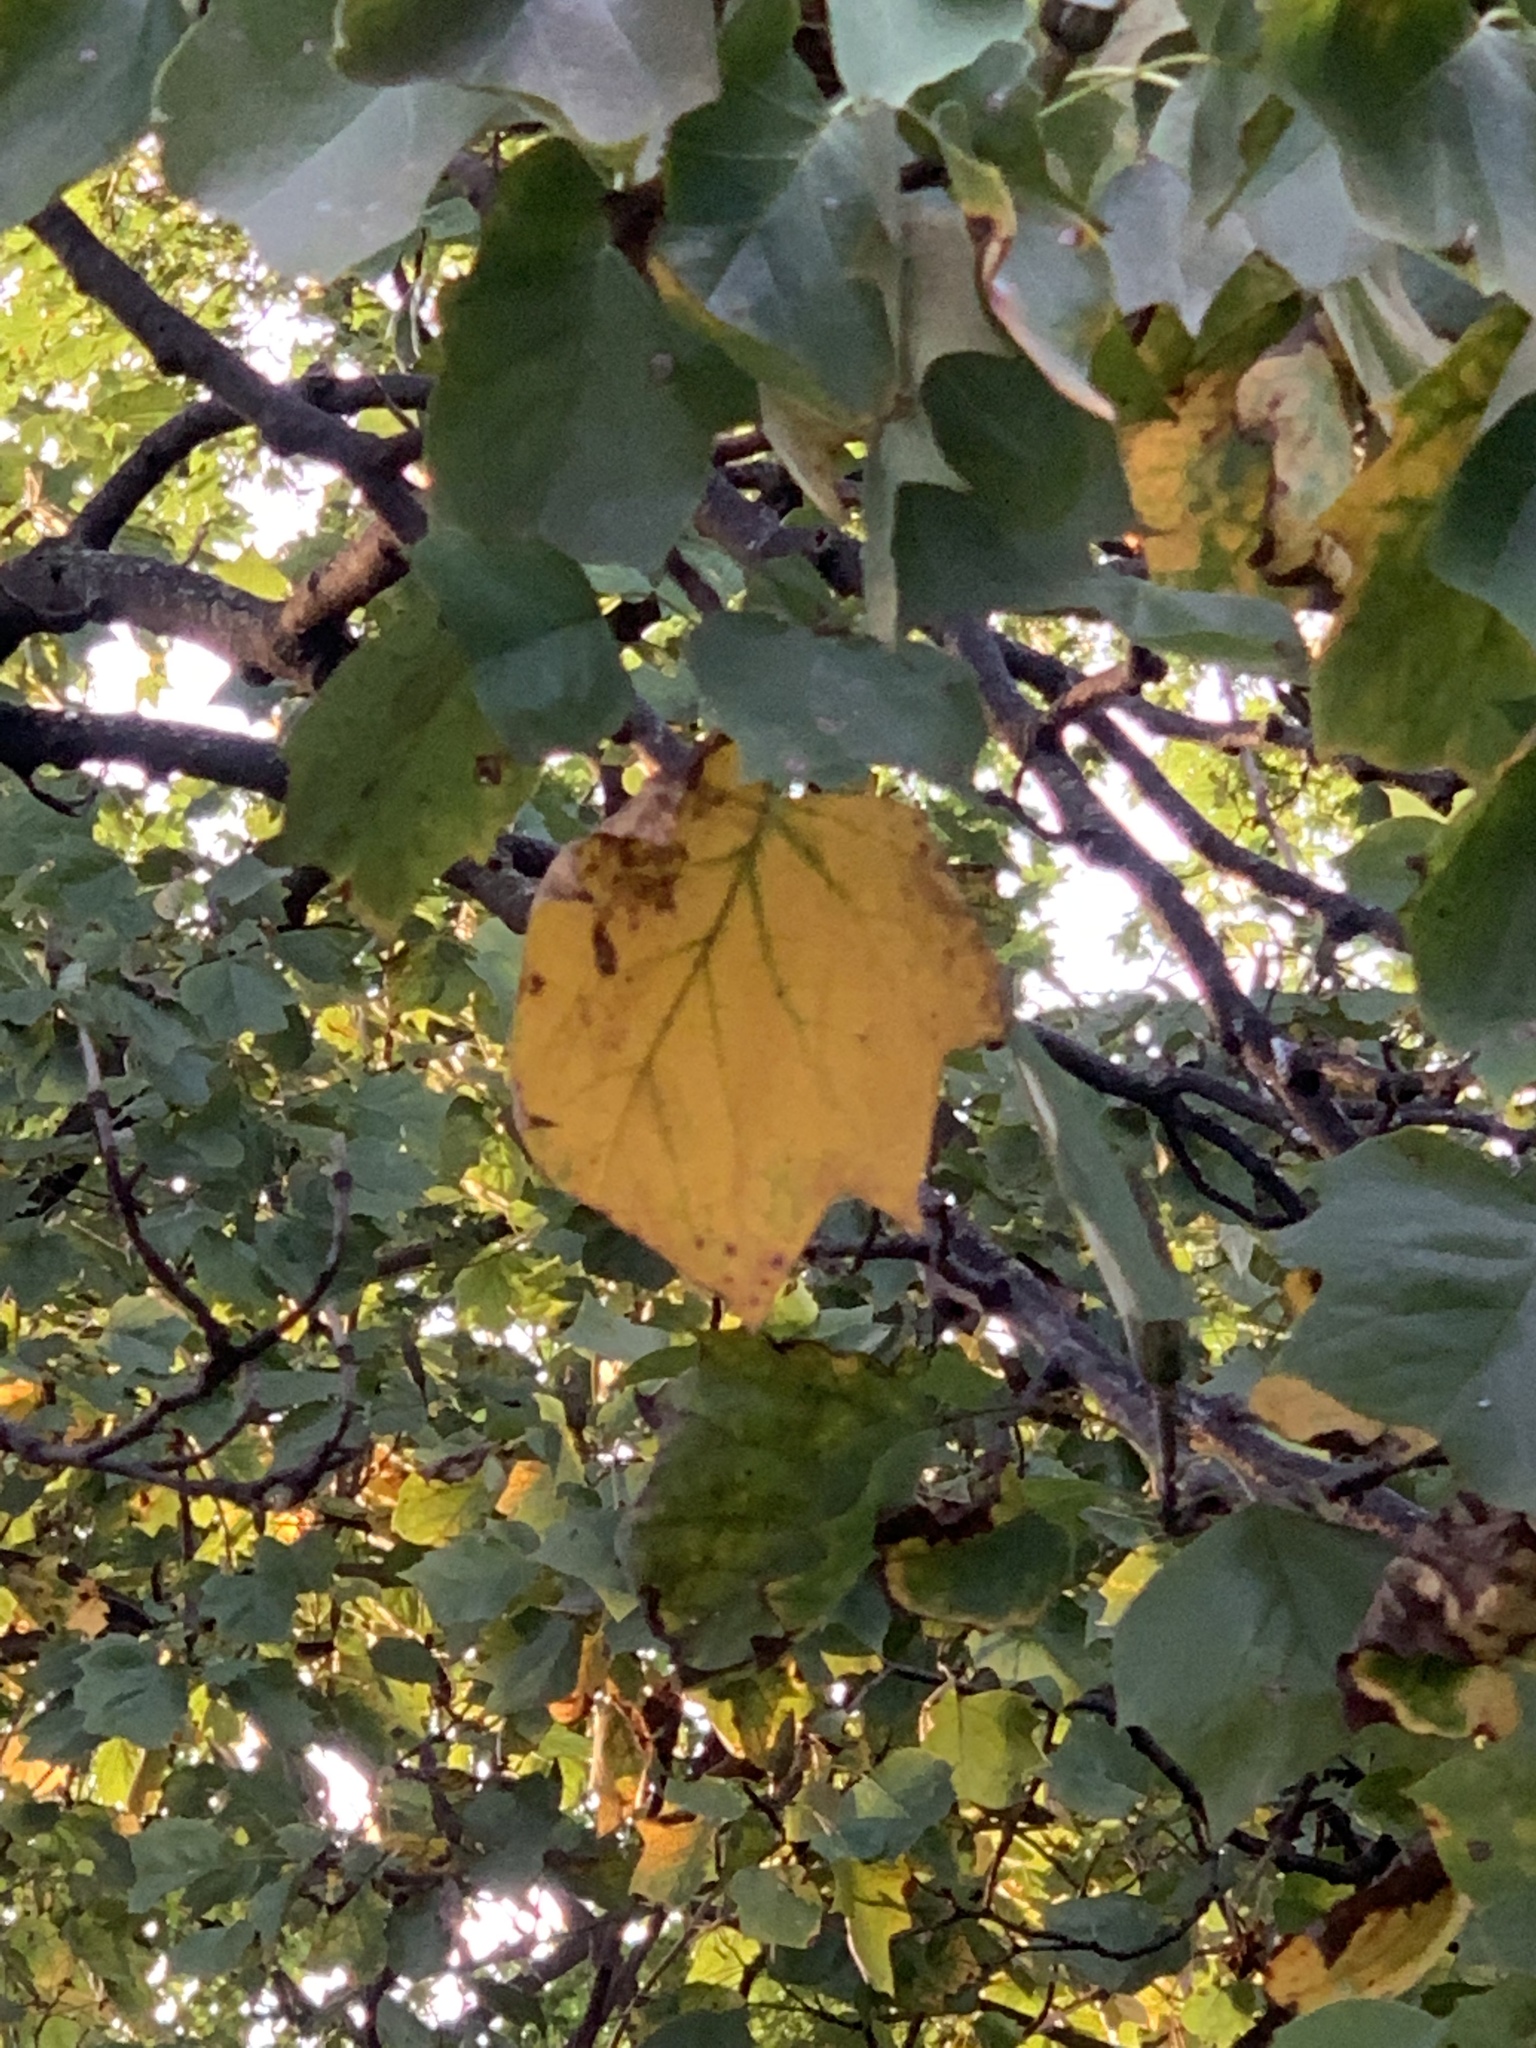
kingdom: Plantae
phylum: Tracheophyta
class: Magnoliopsida
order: Magnoliales
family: Magnoliaceae
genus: Liriodendron
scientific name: Liriodendron tulipifera
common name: Tulip tree
